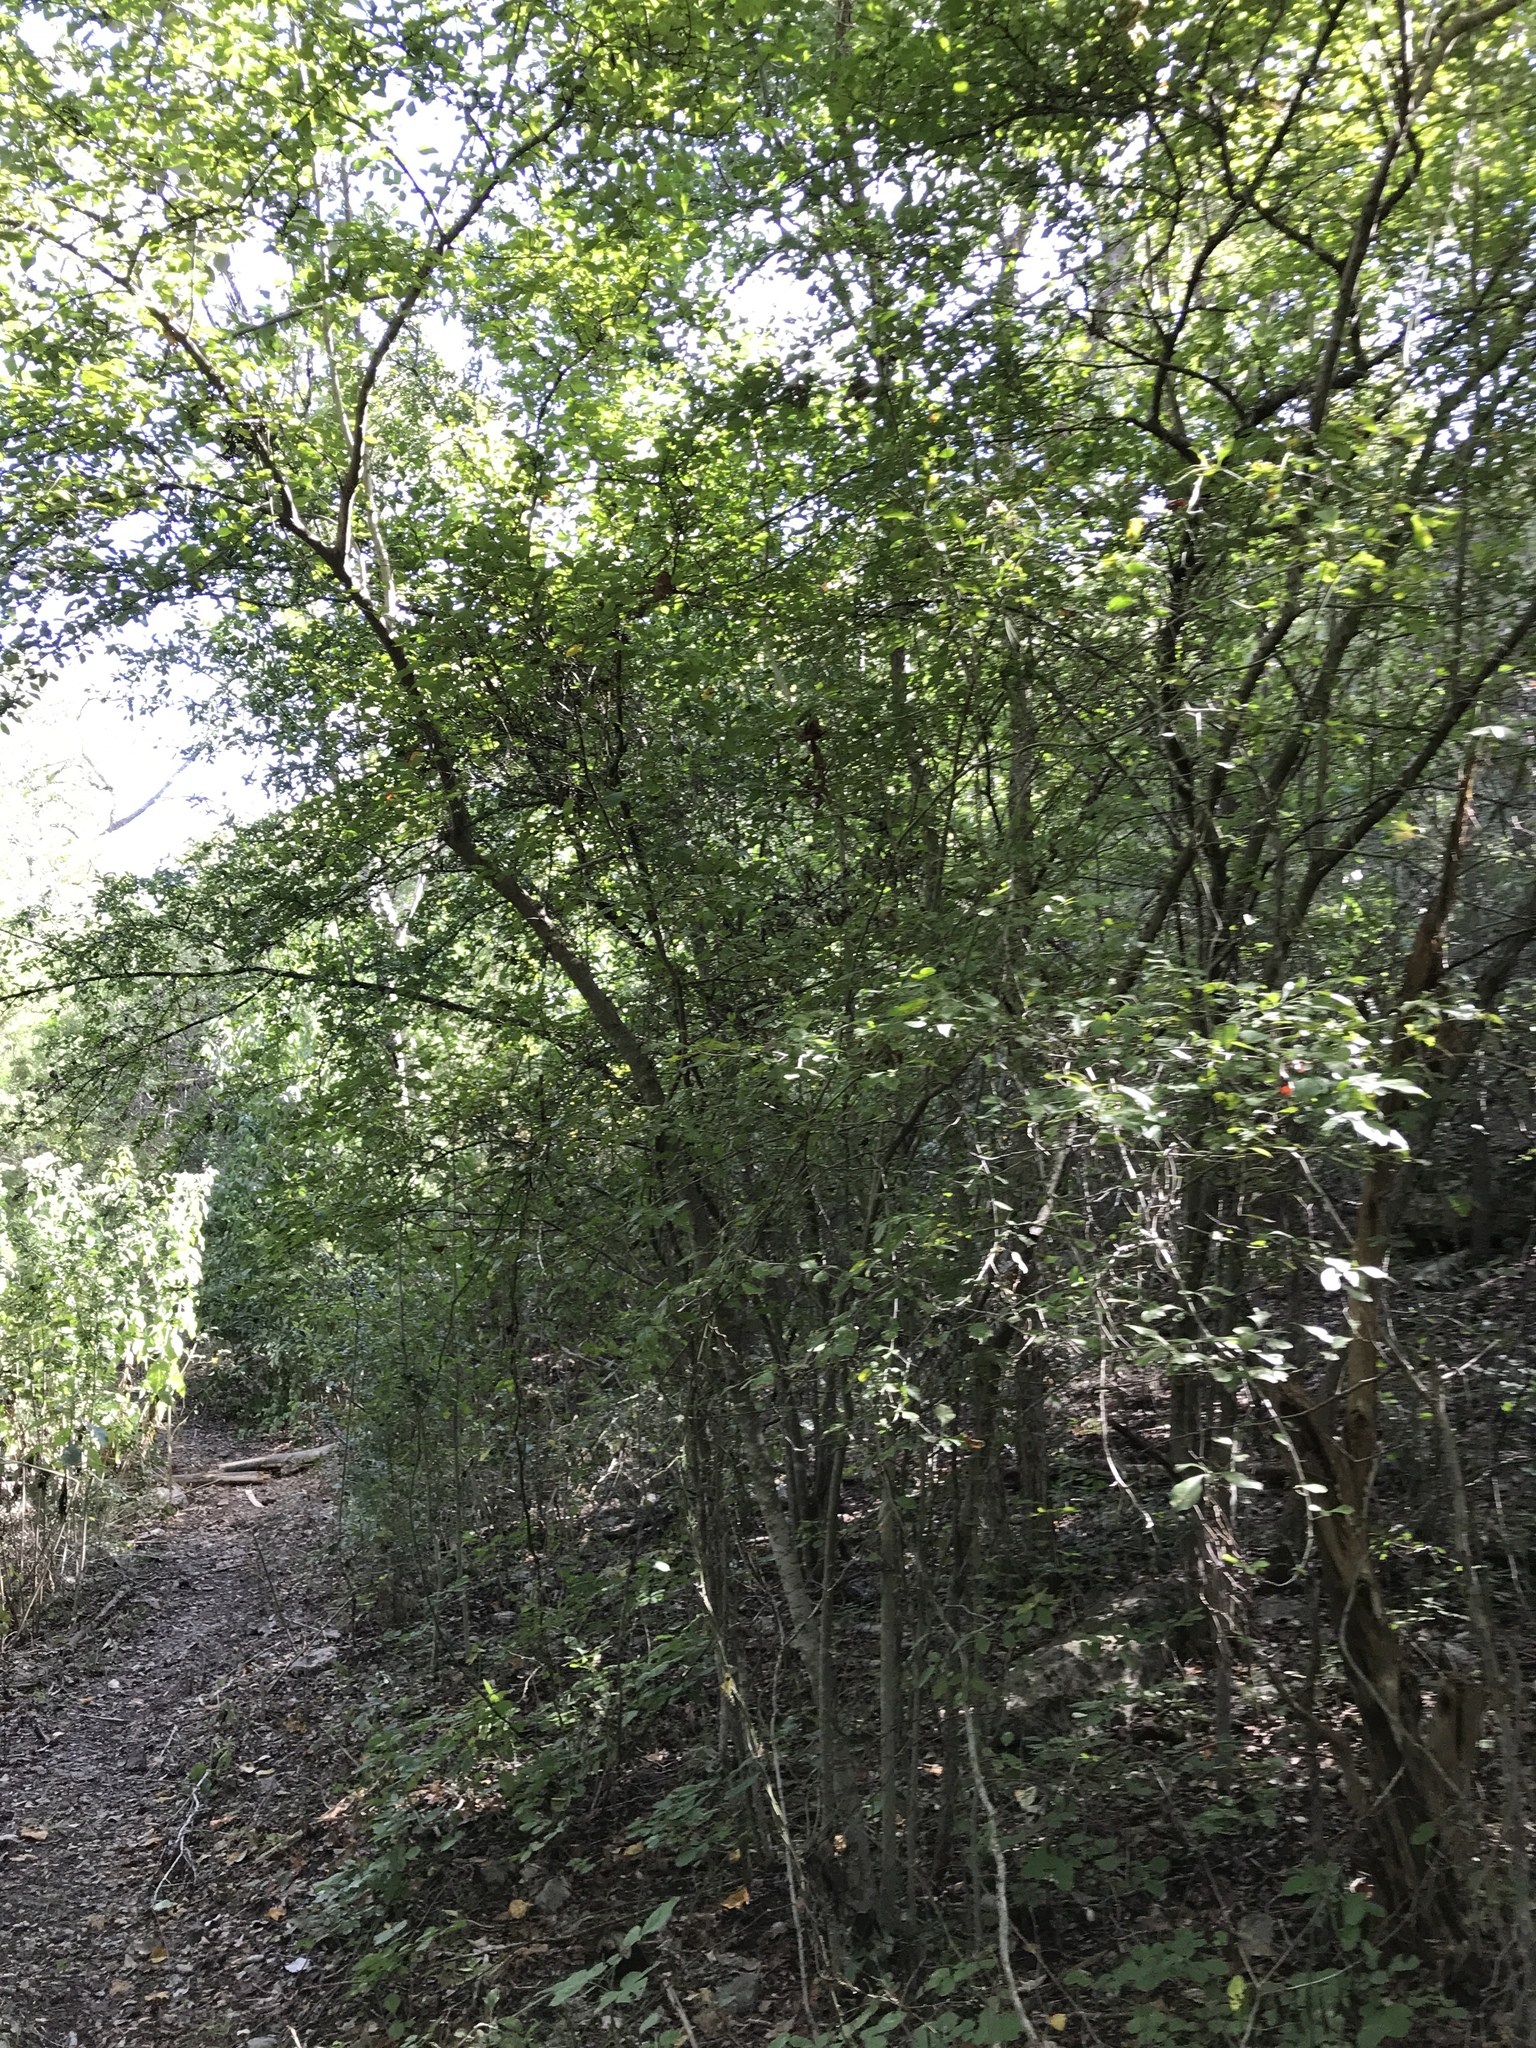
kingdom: Plantae
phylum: Tracheophyta
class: Magnoliopsida
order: Aquifoliales
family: Aquifoliaceae
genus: Ilex
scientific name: Ilex decidua
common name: Possum-haw
